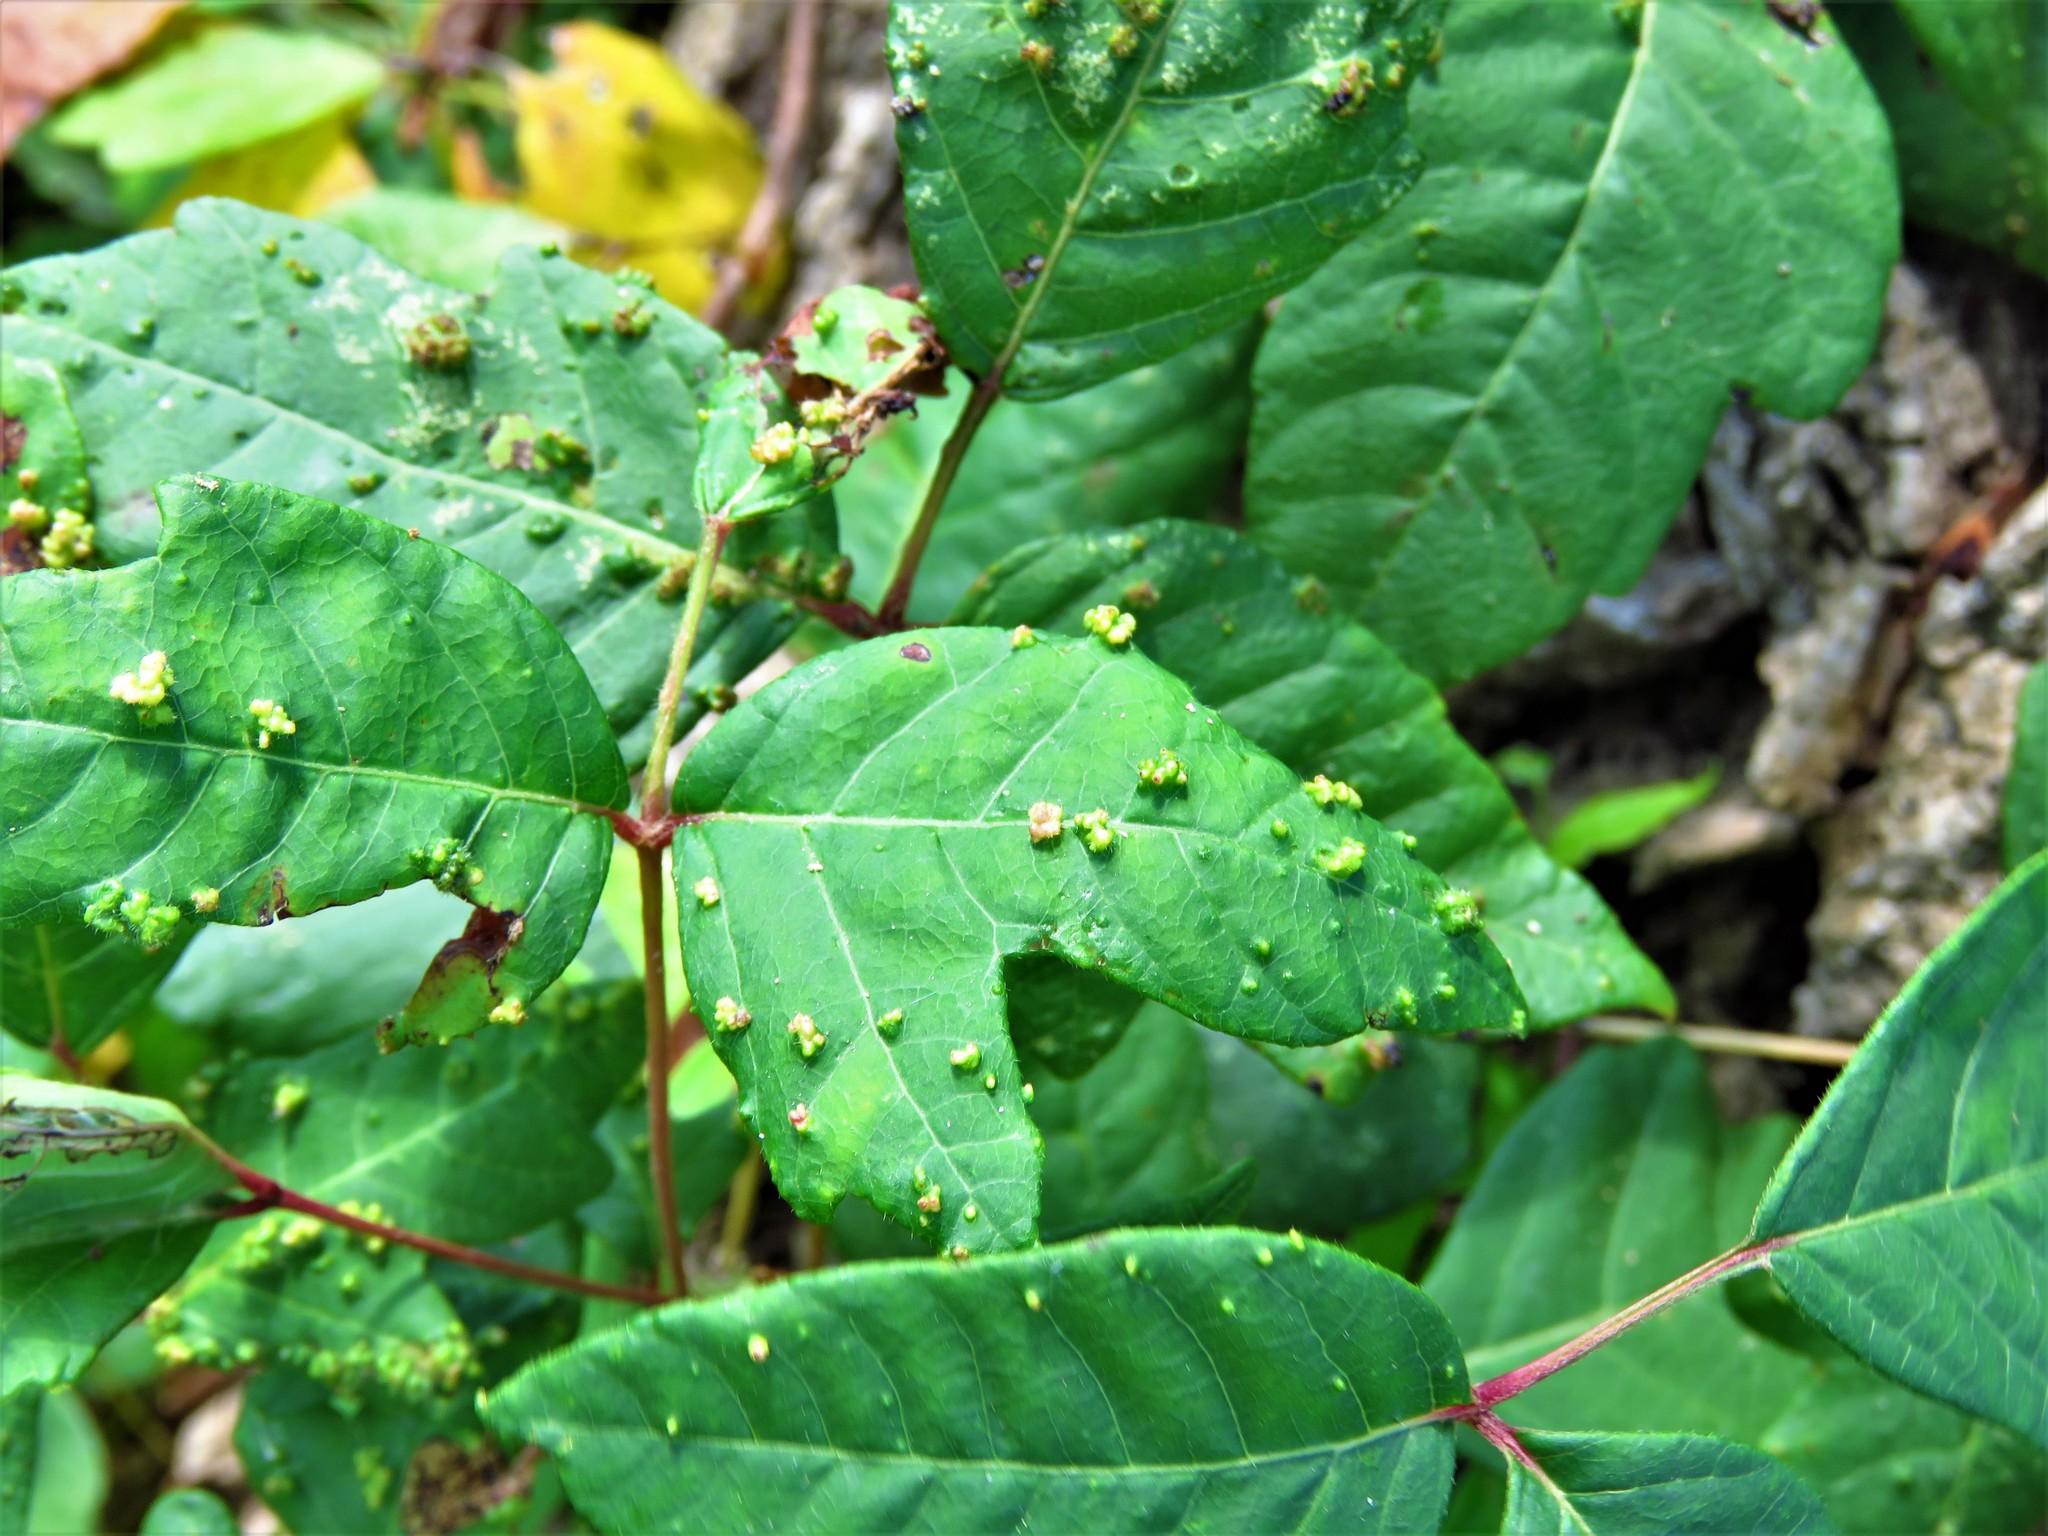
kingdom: Animalia
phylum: Arthropoda
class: Arachnida
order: Trombidiformes
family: Eriophyidae
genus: Aculops
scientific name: Aculops
